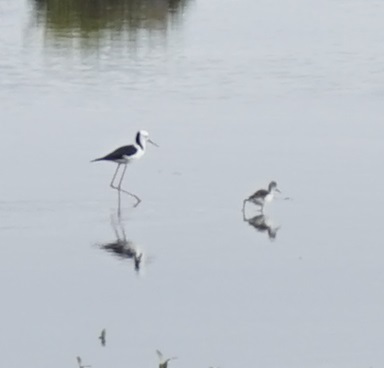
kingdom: Animalia
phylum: Chordata
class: Aves
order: Charadriiformes
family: Recurvirostridae
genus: Himantopus
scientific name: Himantopus leucocephalus
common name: White-headed stilt
